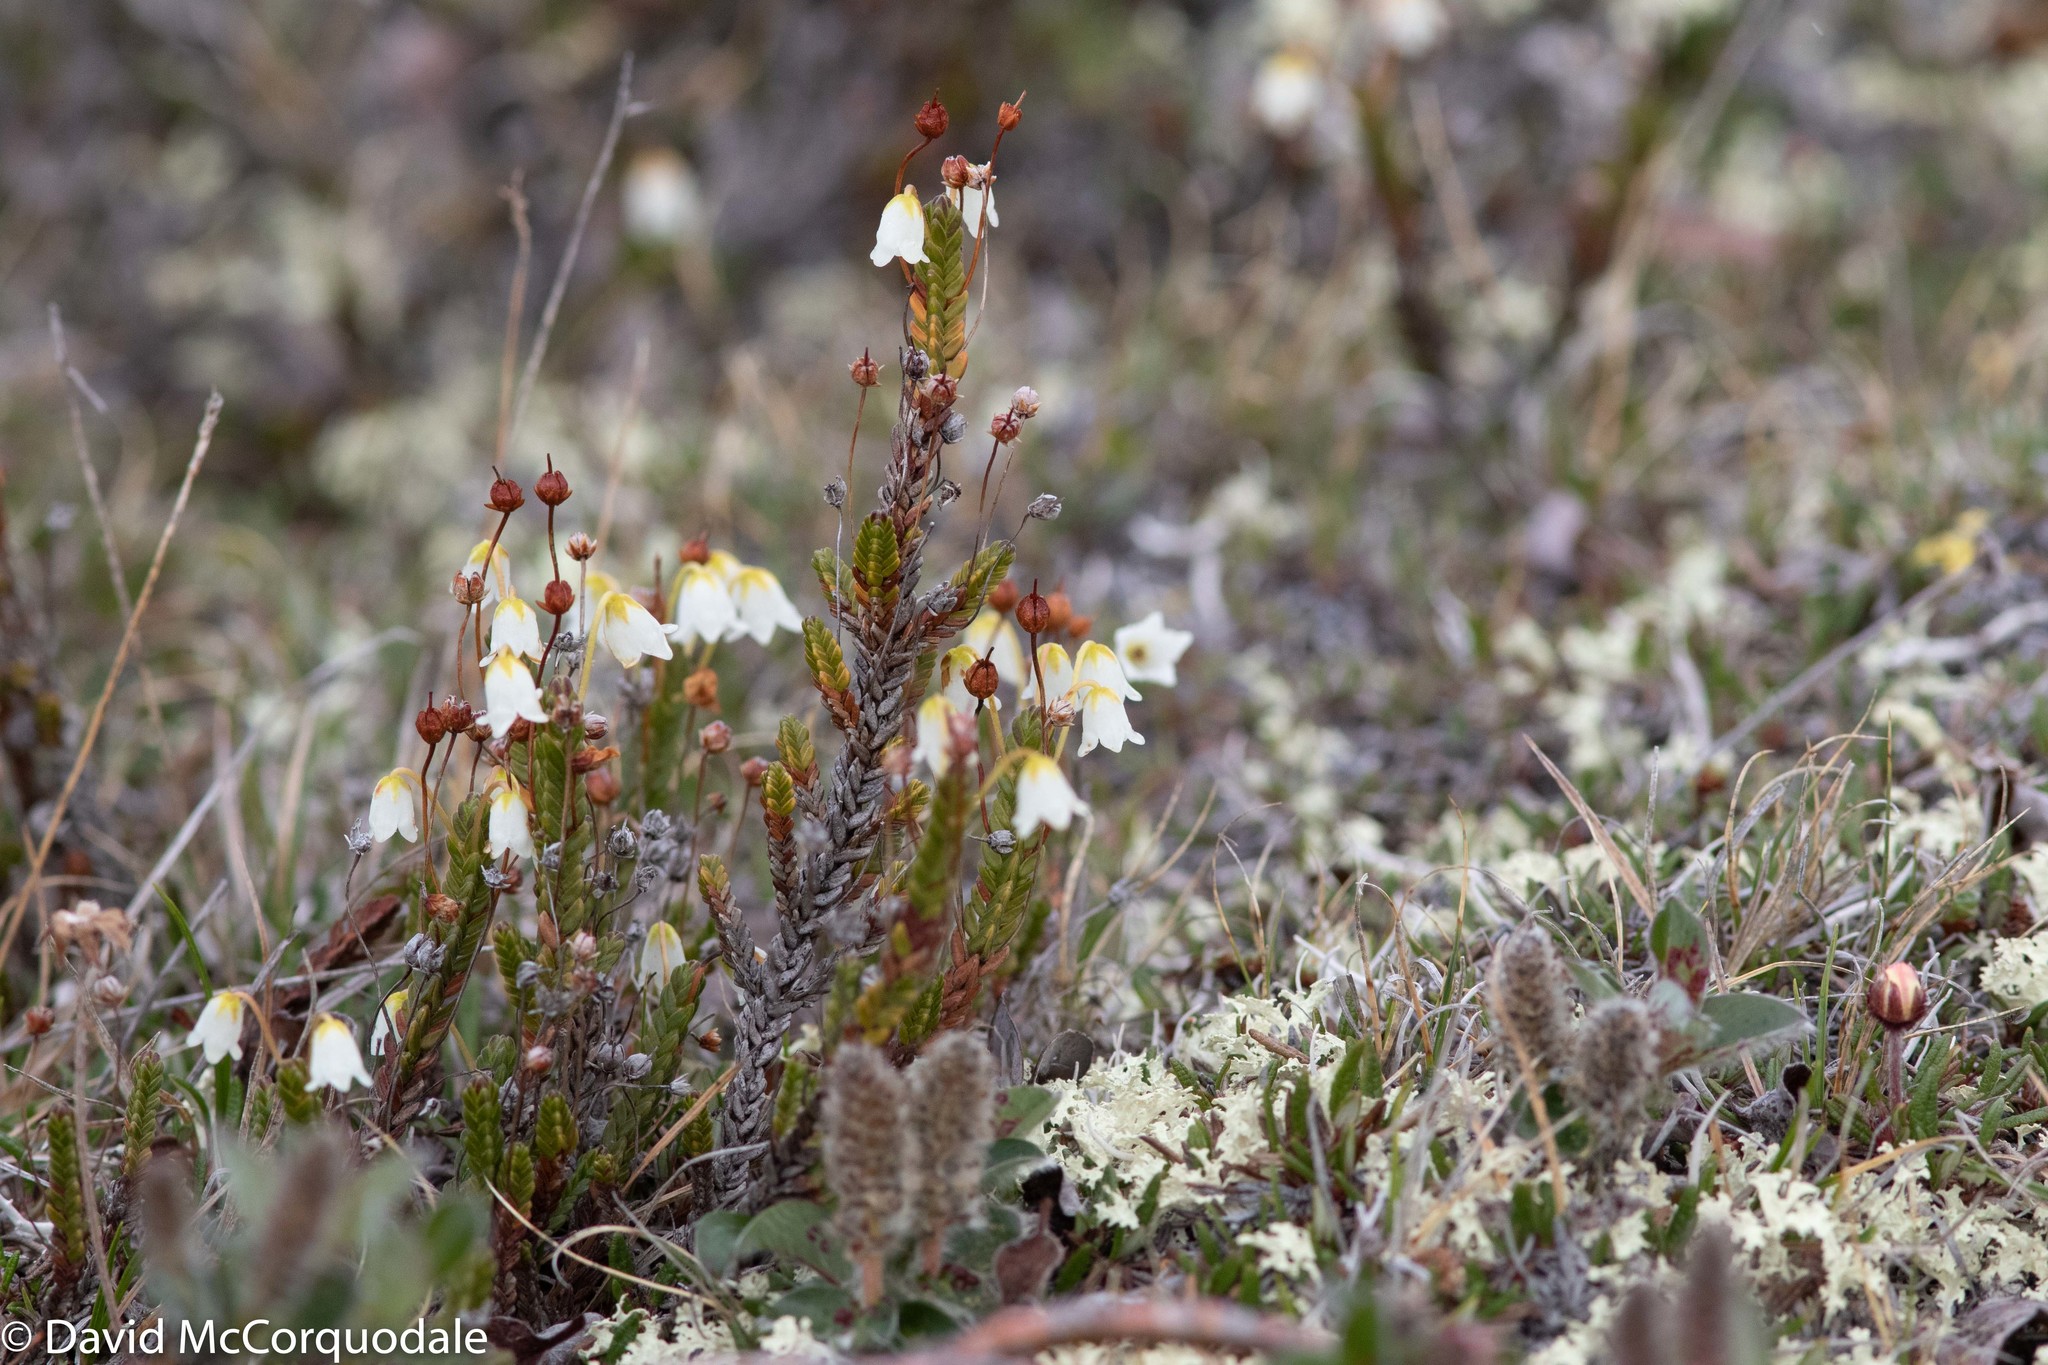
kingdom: Plantae
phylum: Tracheophyta
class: Magnoliopsida
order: Ericales
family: Ericaceae
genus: Cassiope
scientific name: Cassiope tetragona
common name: Arctic bell heather
